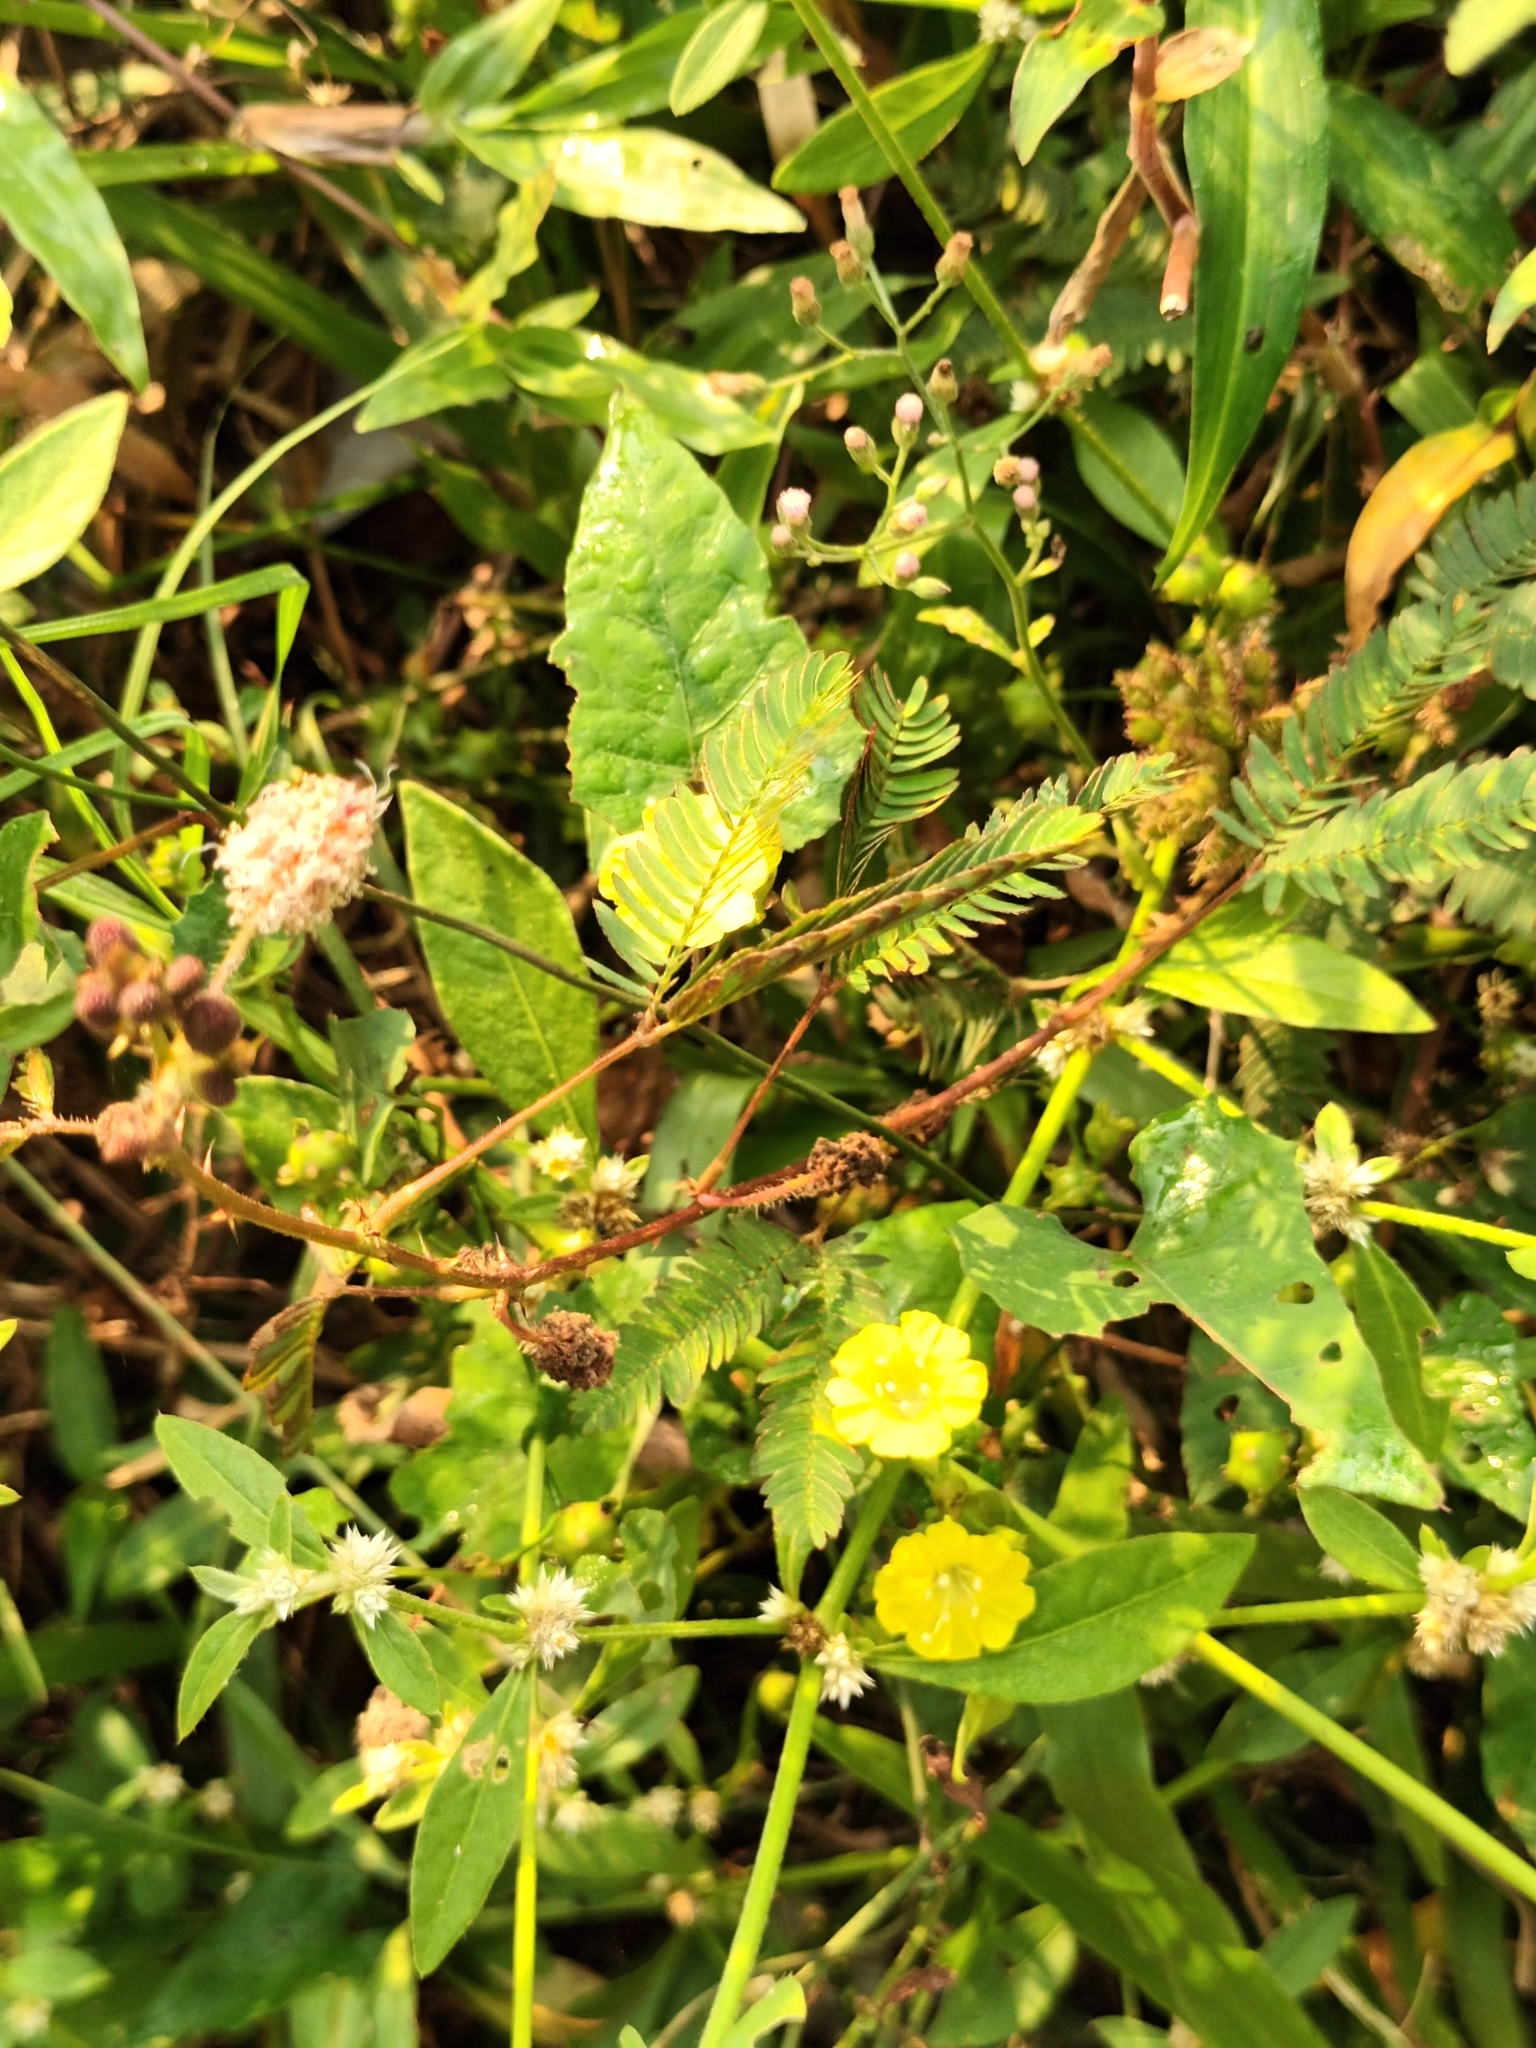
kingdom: Plantae
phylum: Tracheophyta
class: Magnoliopsida
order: Solanales
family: Convolvulaceae
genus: Merremia
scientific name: Merremia hederacea
